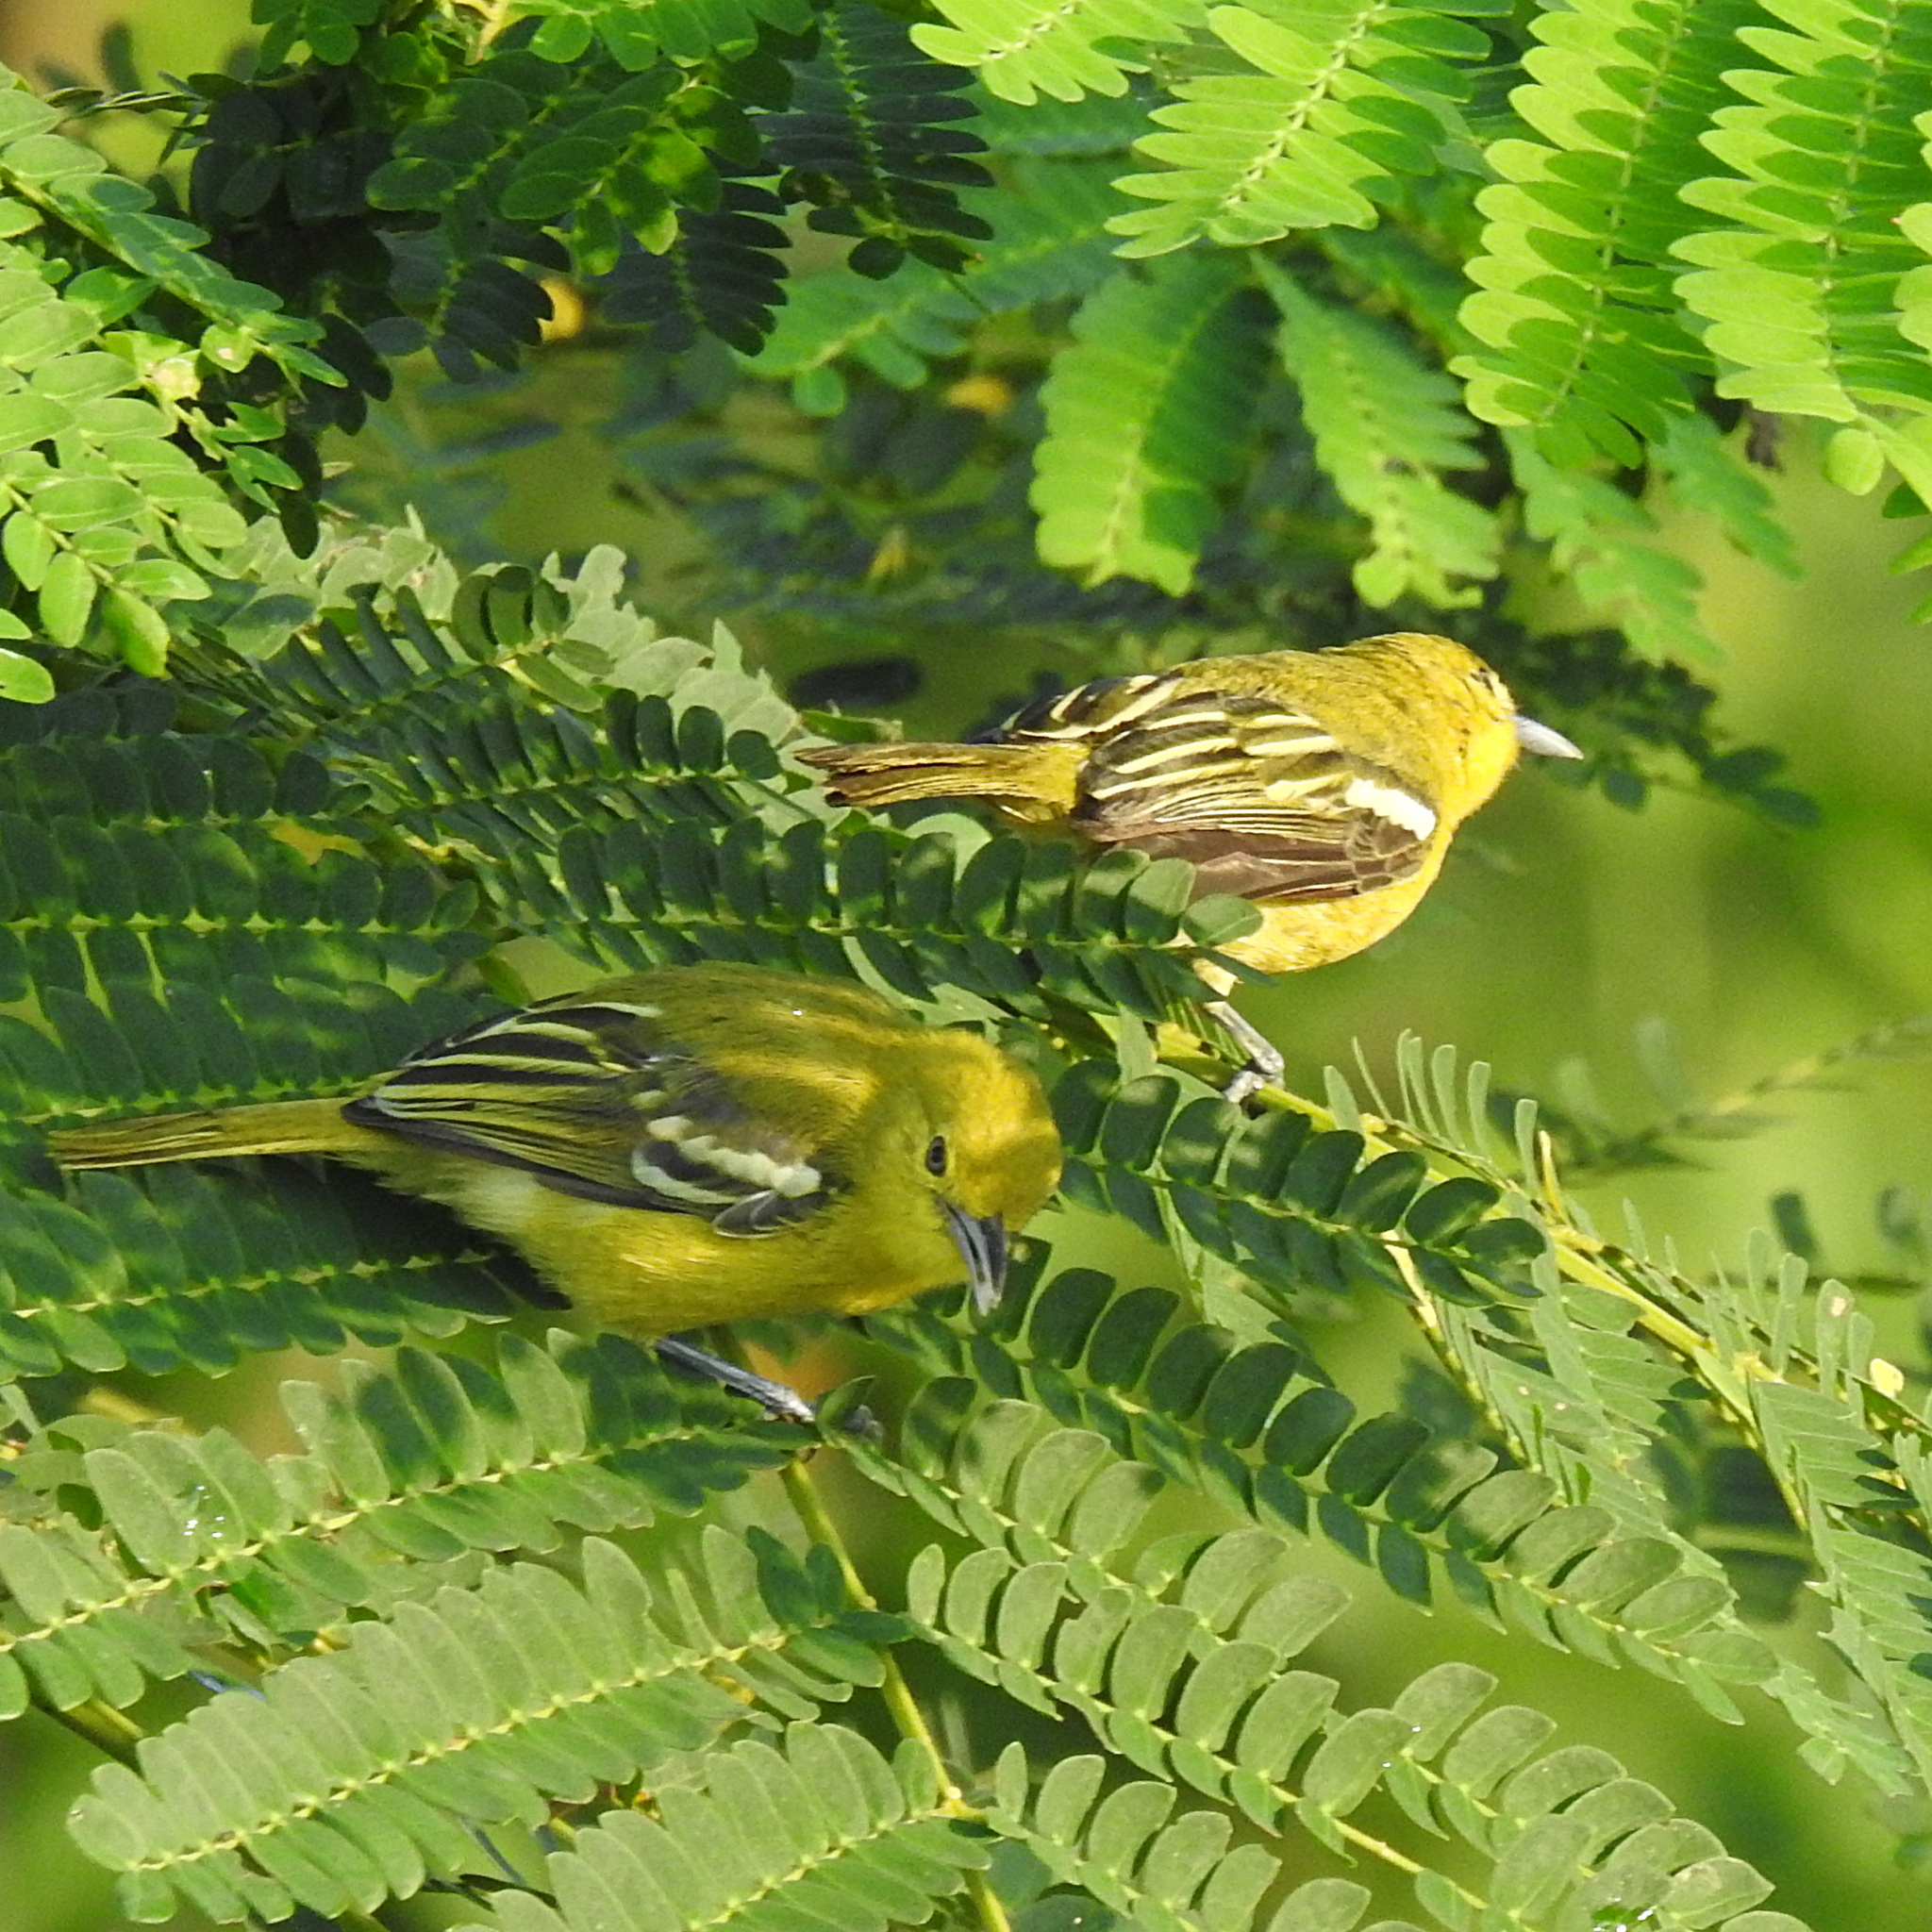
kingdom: Animalia
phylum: Chordata
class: Aves
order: Passeriformes
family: Aegithinidae
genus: Aegithina
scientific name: Aegithina tiphia
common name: Common iora
